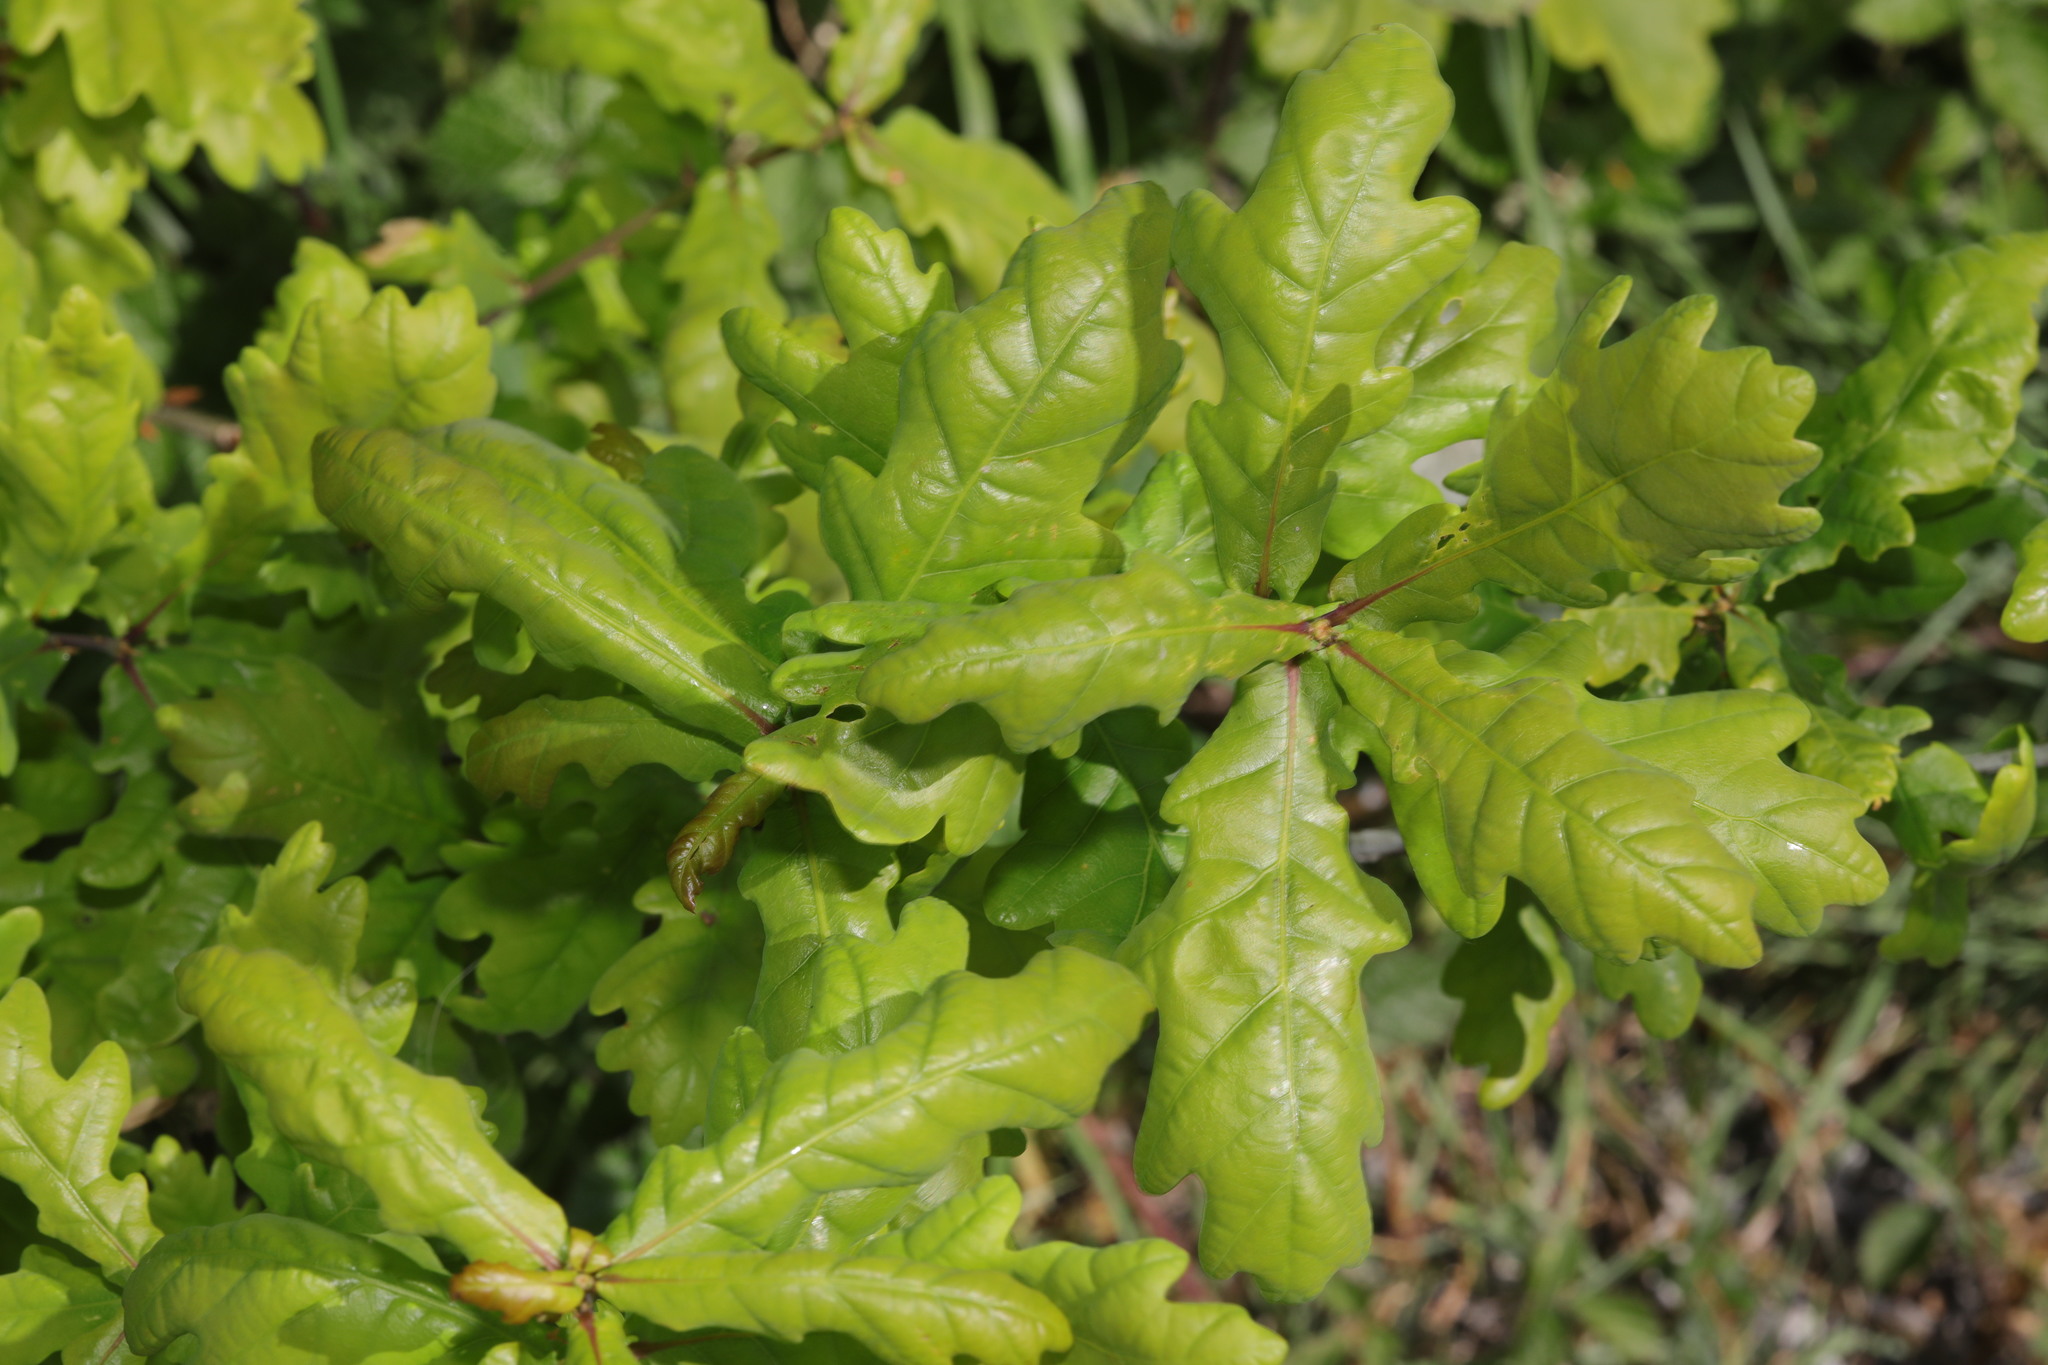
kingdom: Plantae
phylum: Tracheophyta
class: Magnoliopsida
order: Fagales
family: Fagaceae
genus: Quercus
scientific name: Quercus robur
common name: Pedunculate oak
